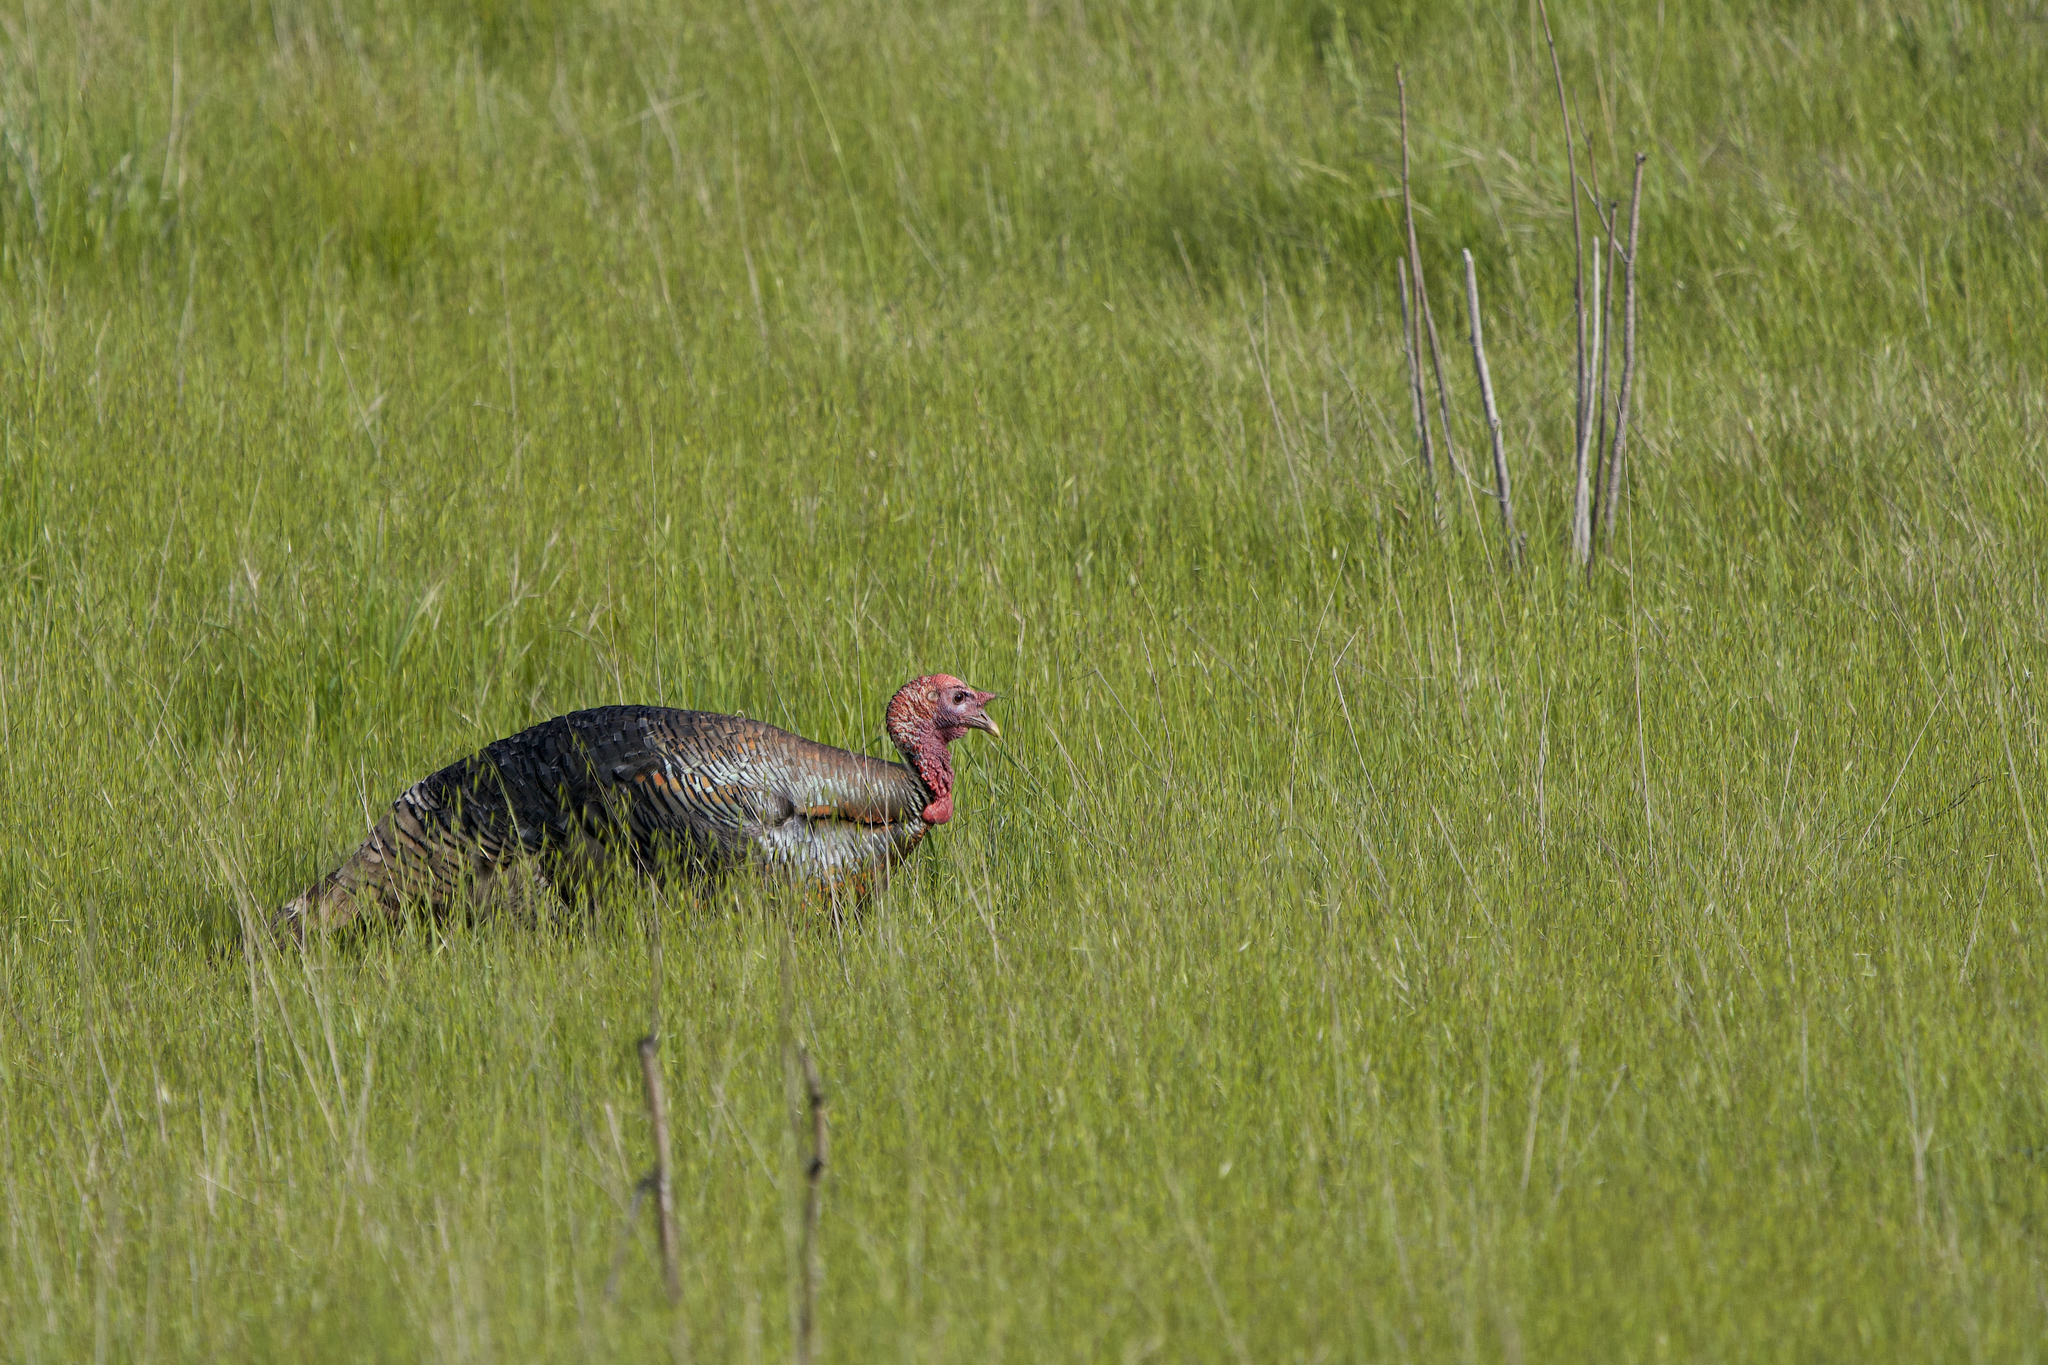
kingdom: Animalia
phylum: Chordata
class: Aves
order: Galliformes
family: Phasianidae
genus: Meleagris
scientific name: Meleagris gallopavo
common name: Wild turkey
